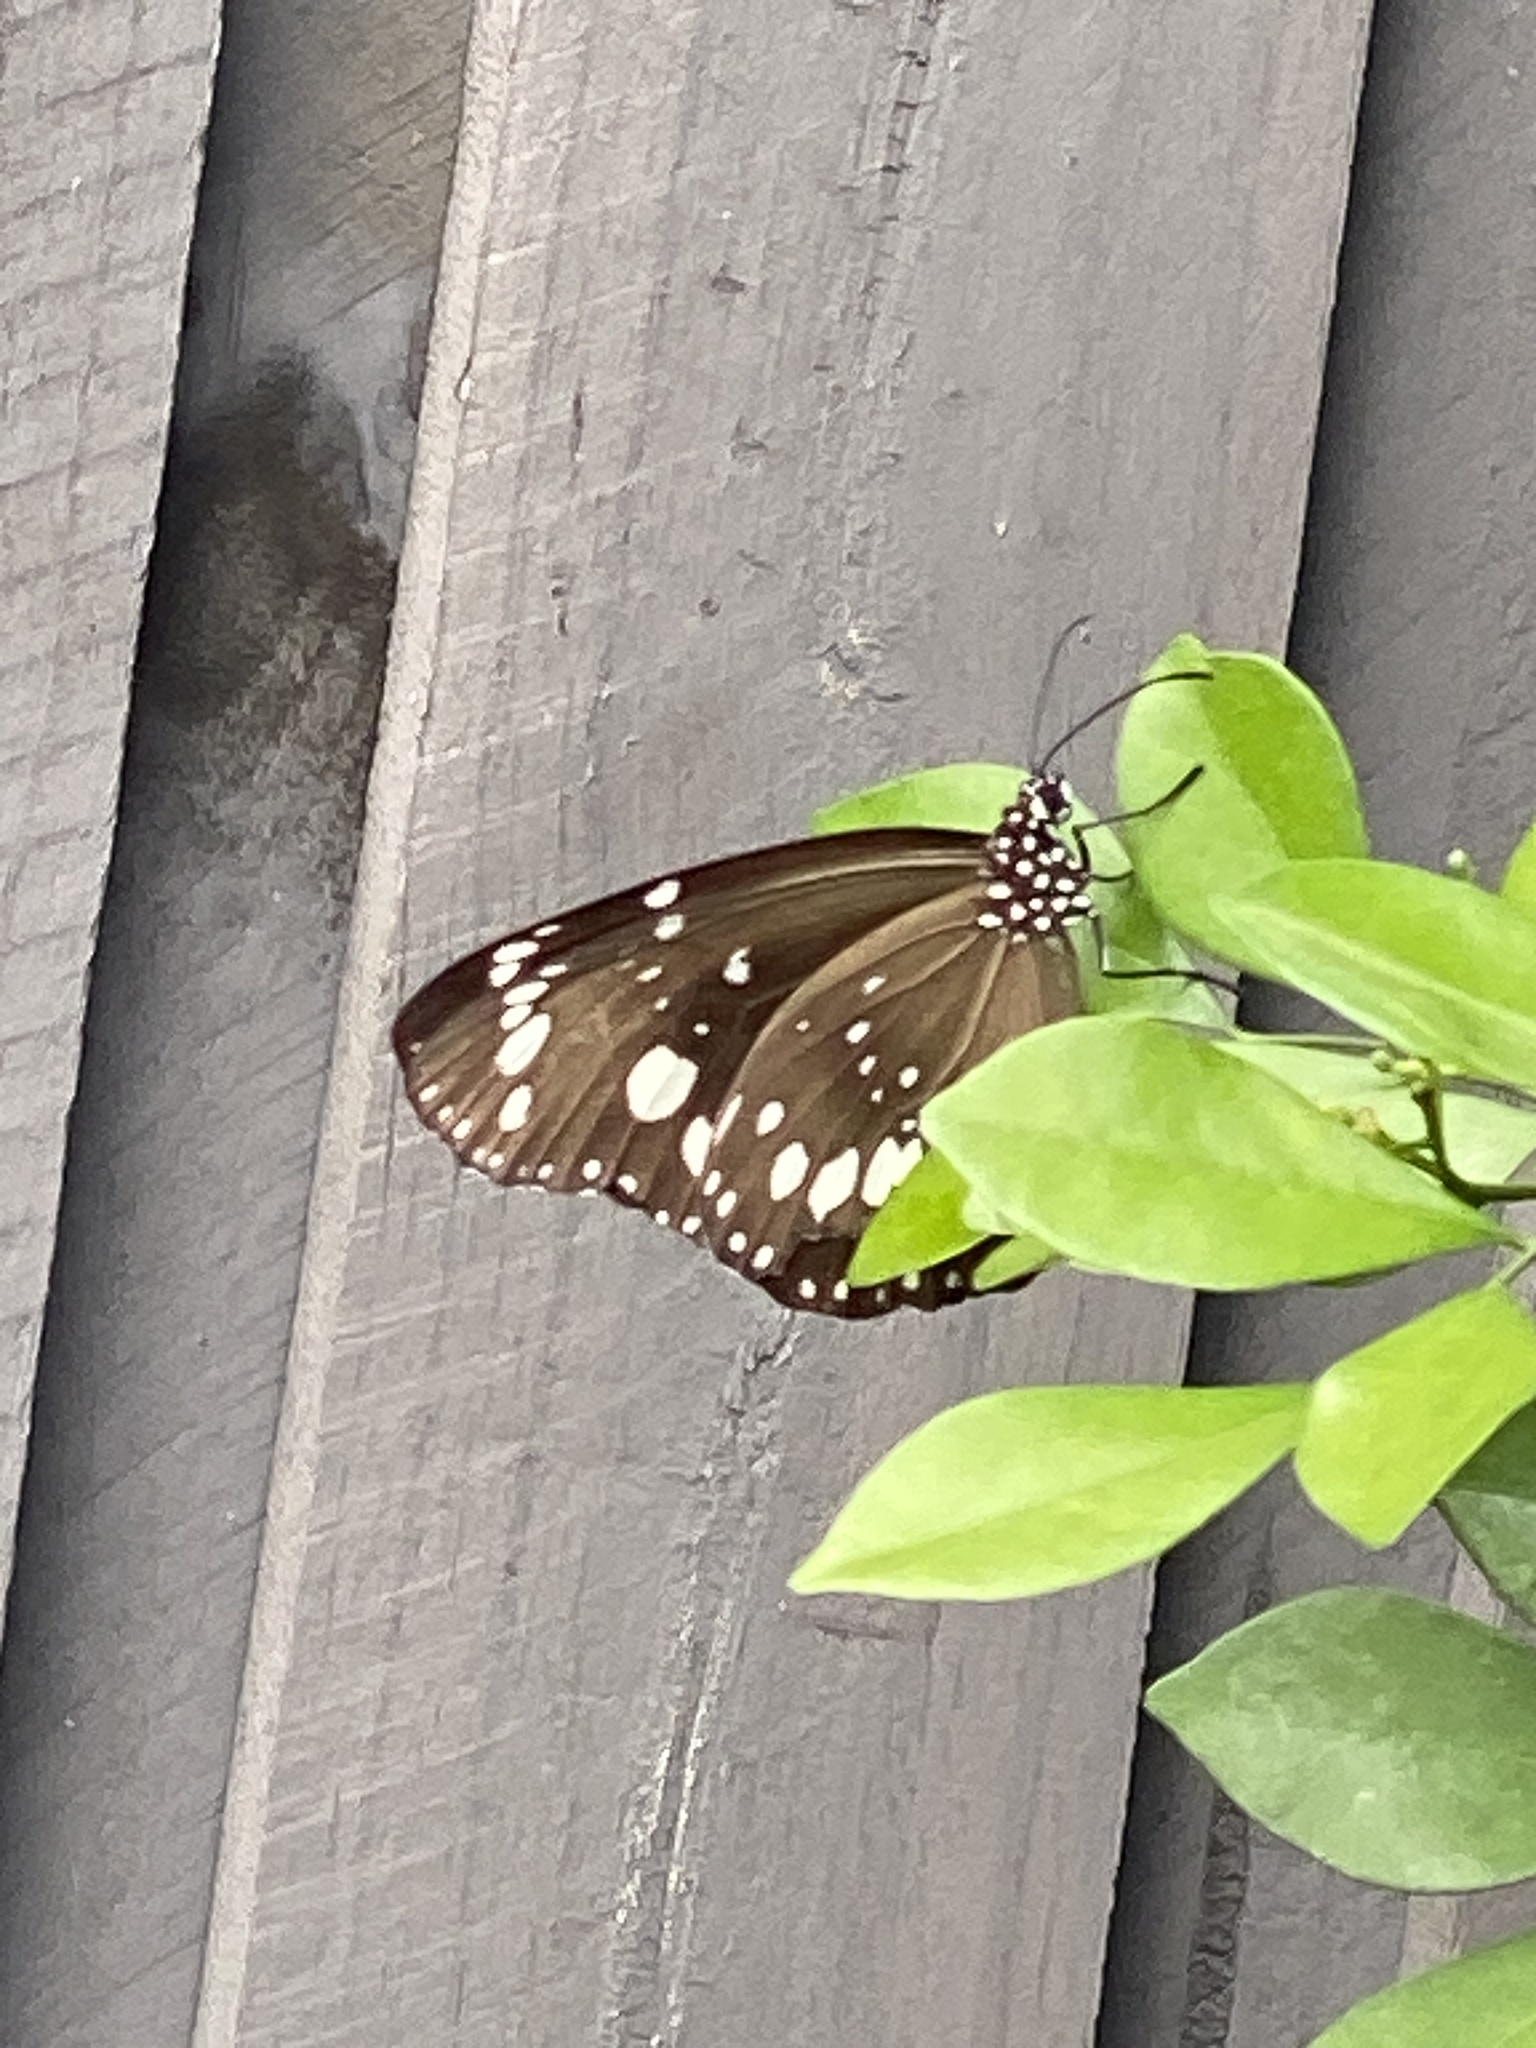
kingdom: Animalia
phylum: Arthropoda
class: Insecta
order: Lepidoptera
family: Nymphalidae
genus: Euploea
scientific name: Euploea core
